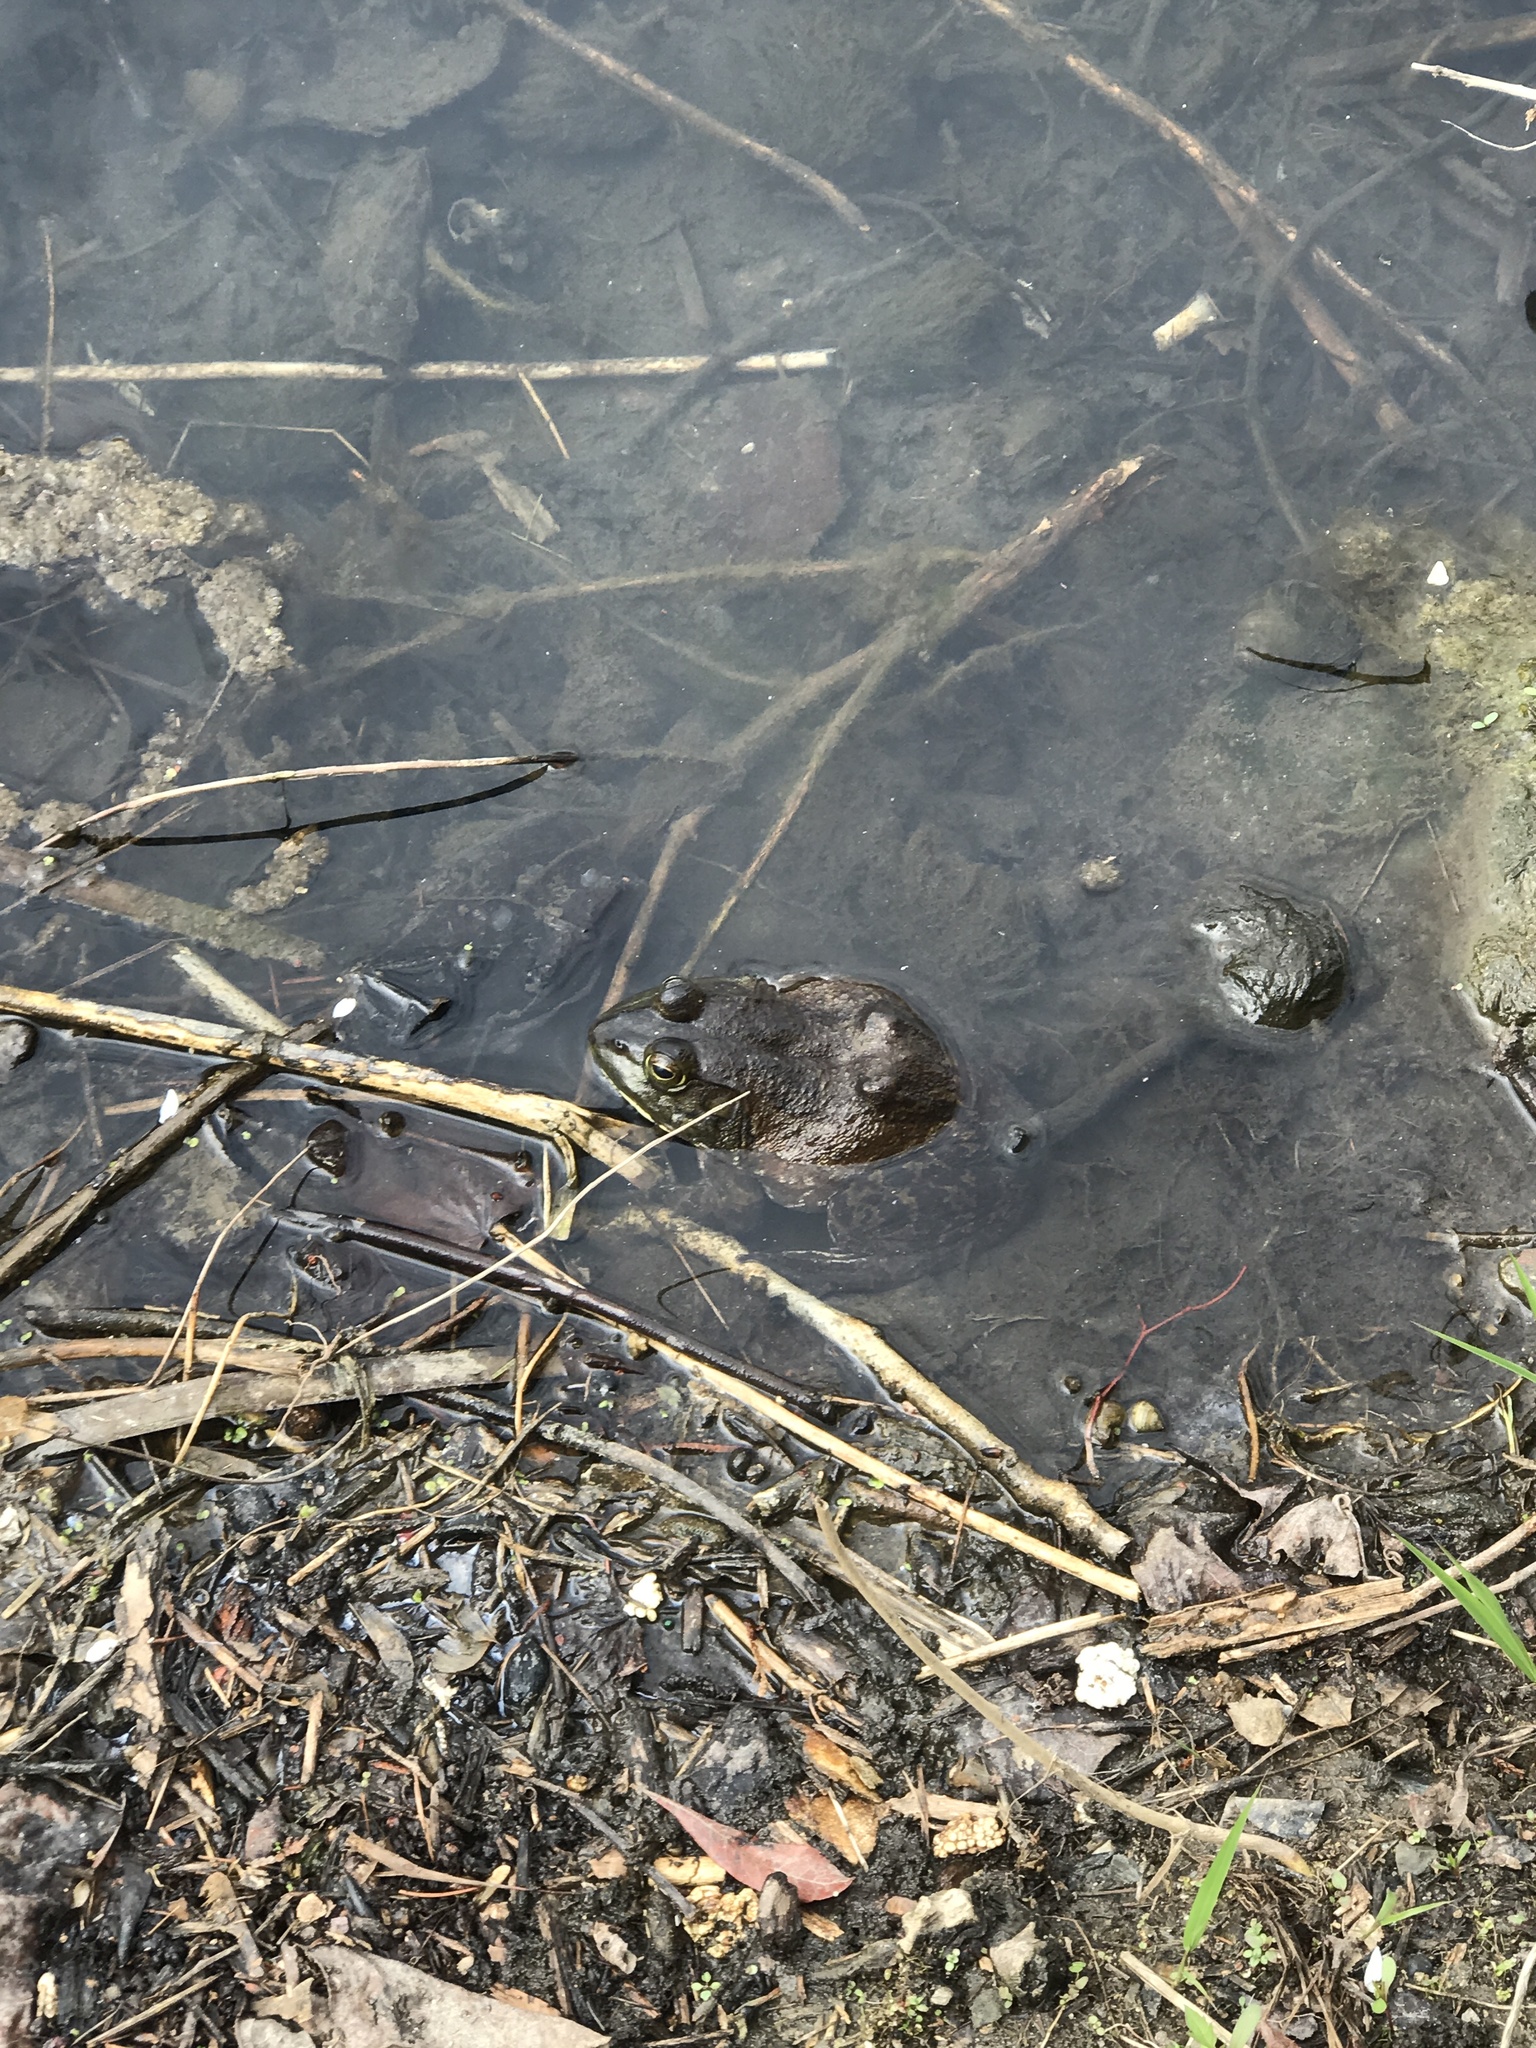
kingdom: Animalia
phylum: Chordata
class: Amphibia
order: Anura
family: Ranidae
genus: Lithobates
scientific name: Lithobates catesbeianus
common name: American bullfrog
